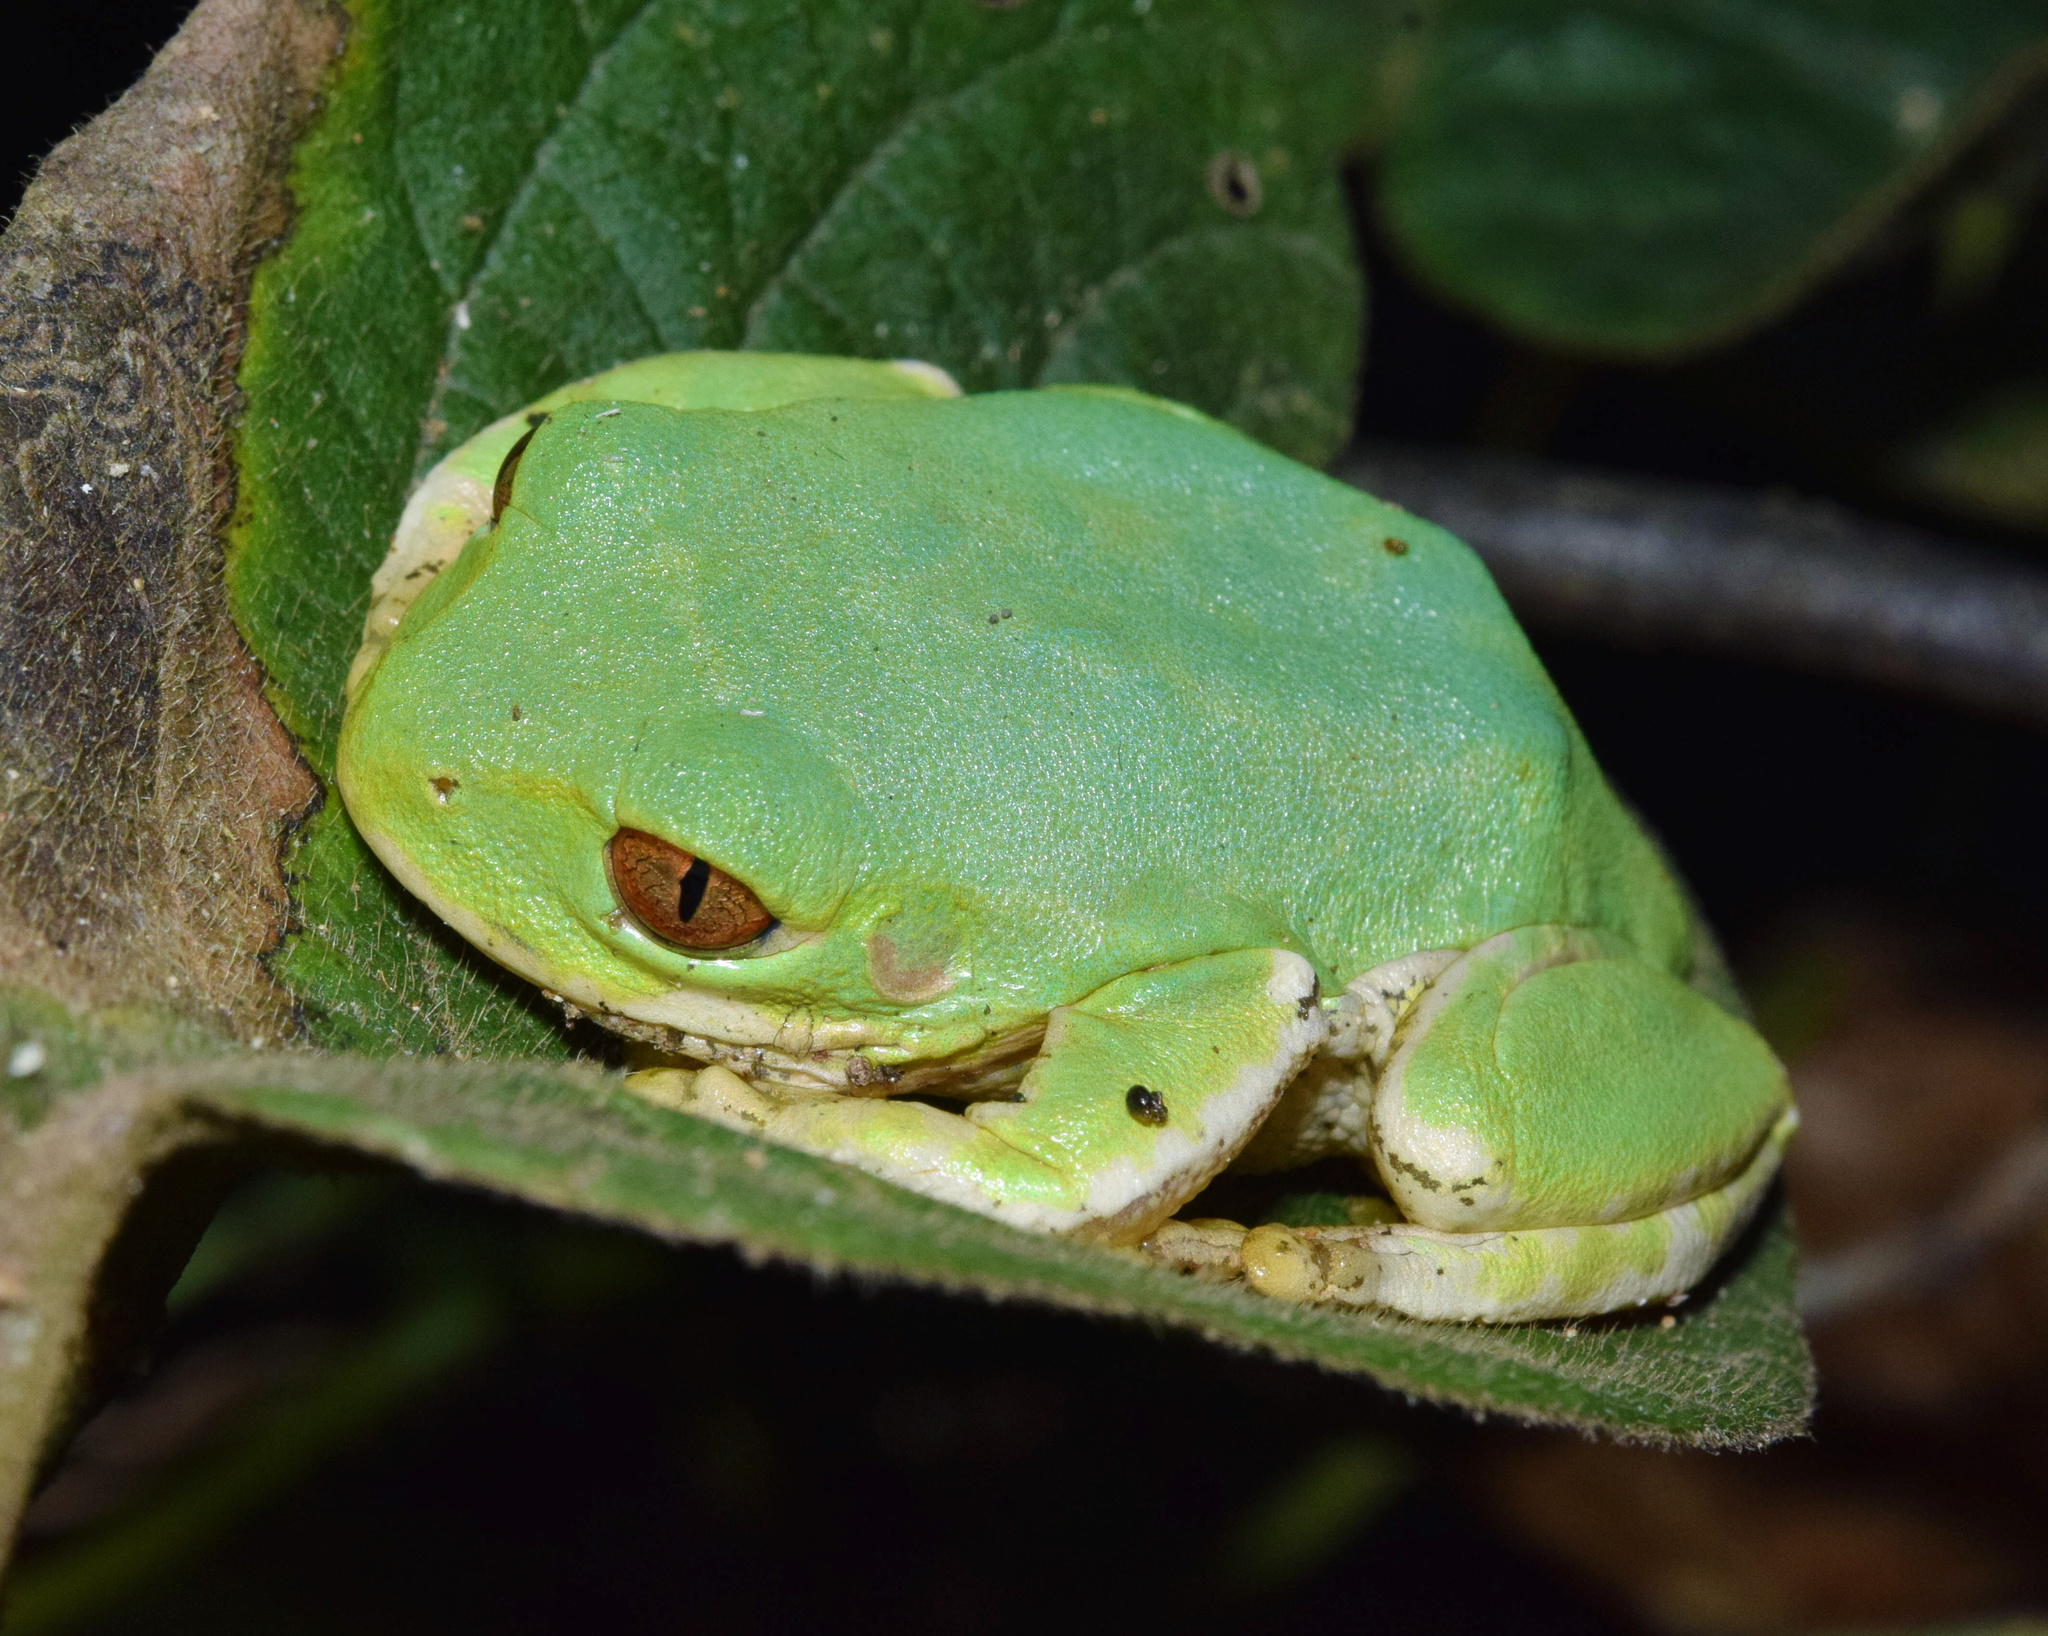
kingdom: Animalia
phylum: Chordata
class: Amphibia
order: Anura
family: Arthroleptidae
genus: Leptopelis
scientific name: Leptopelis natalensis
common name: Natal tree frog
